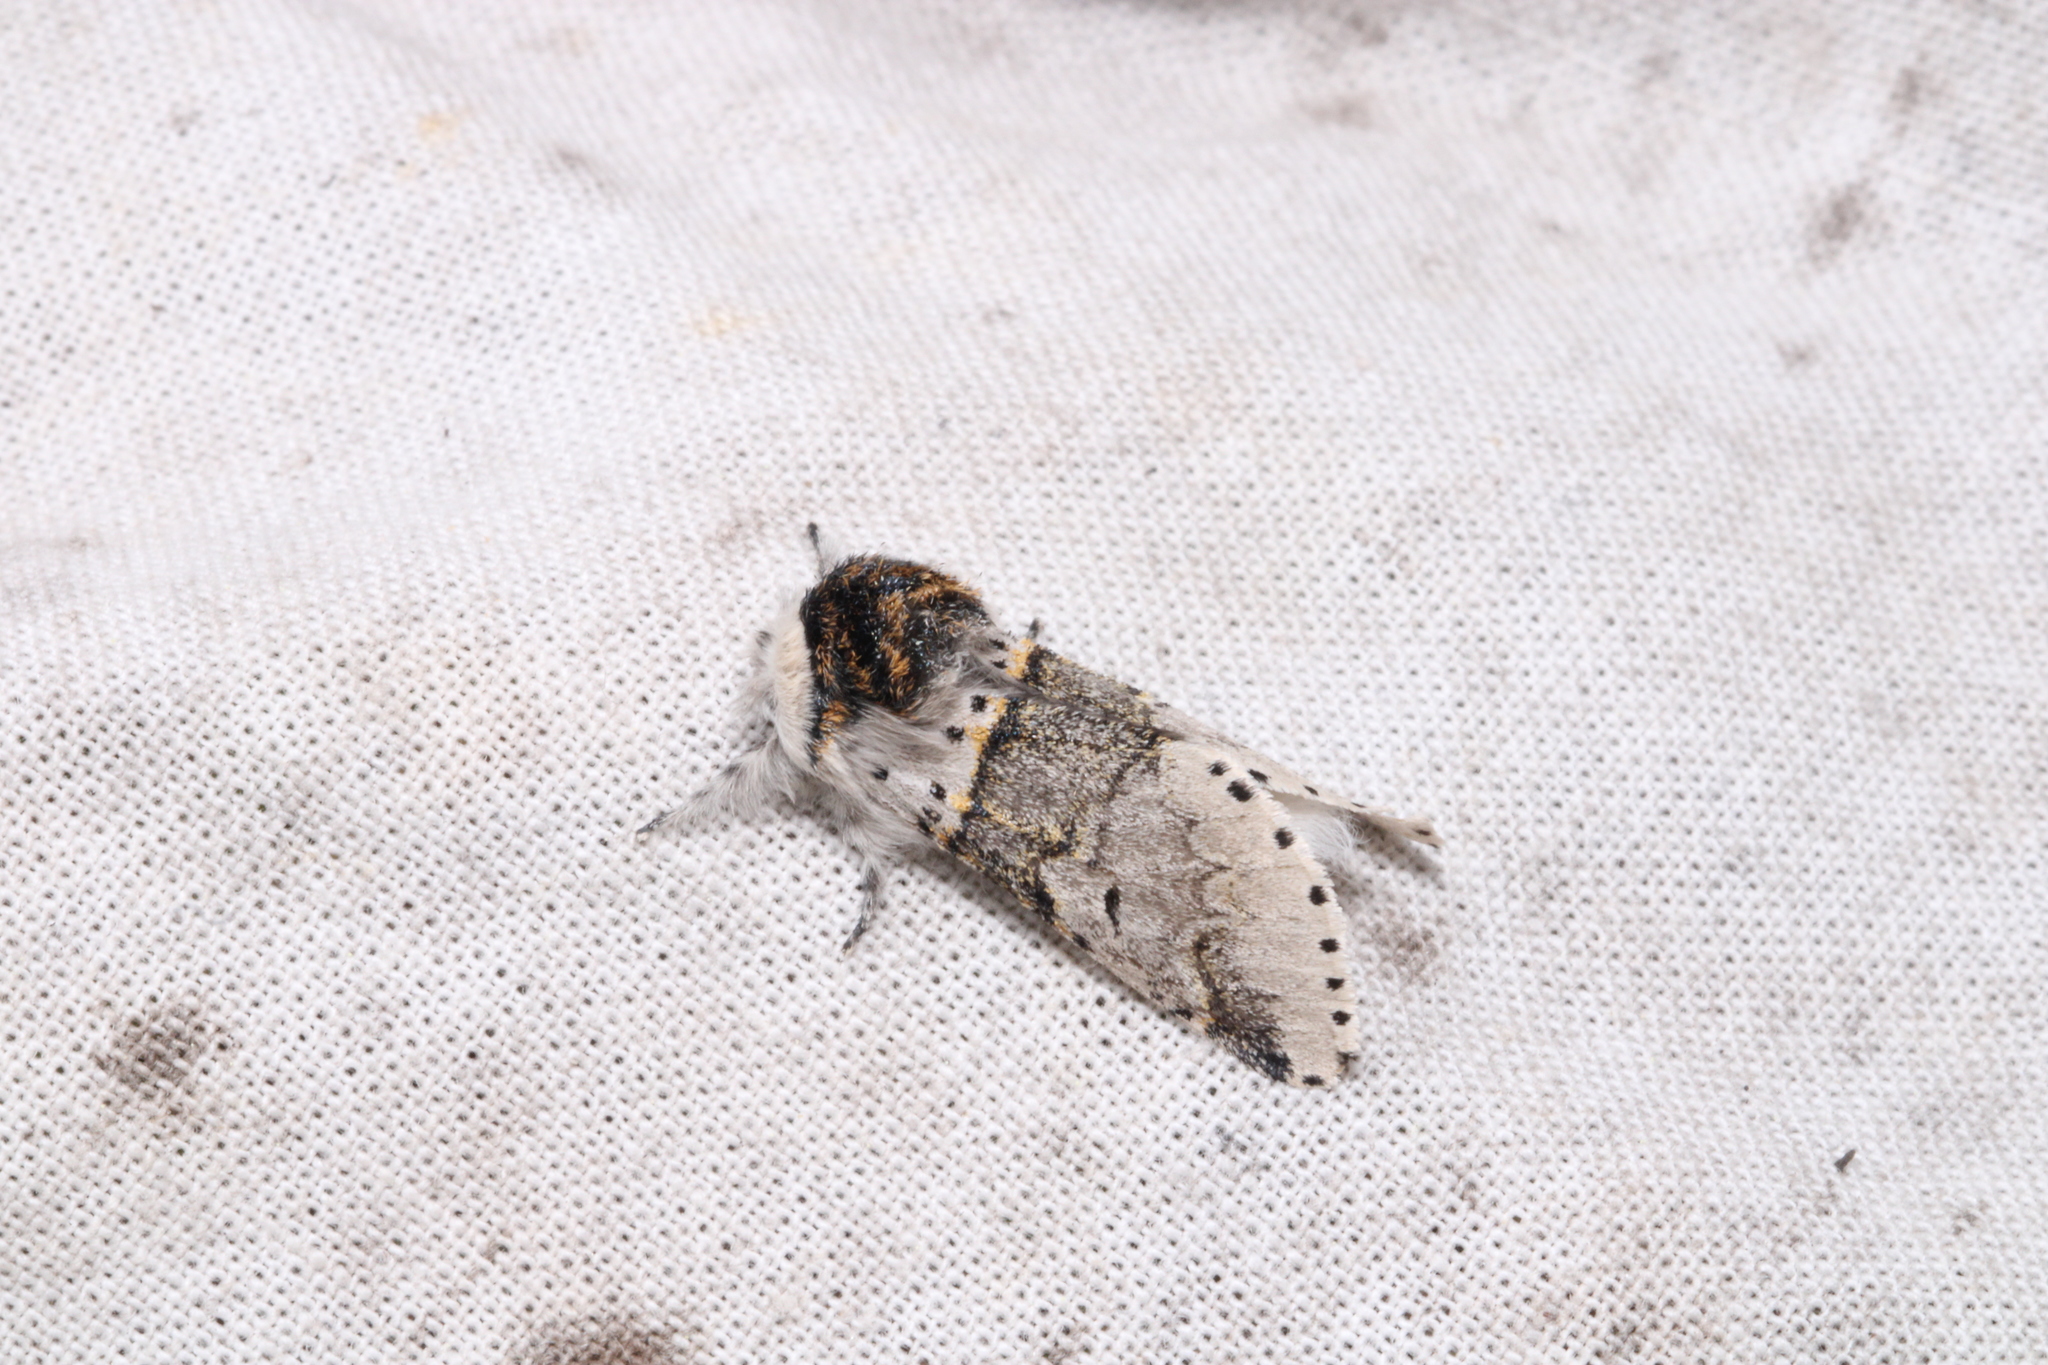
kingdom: Animalia
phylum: Arthropoda
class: Insecta
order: Lepidoptera
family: Notodontidae
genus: Furcula
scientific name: Furcula furcula
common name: Sallow kitten
